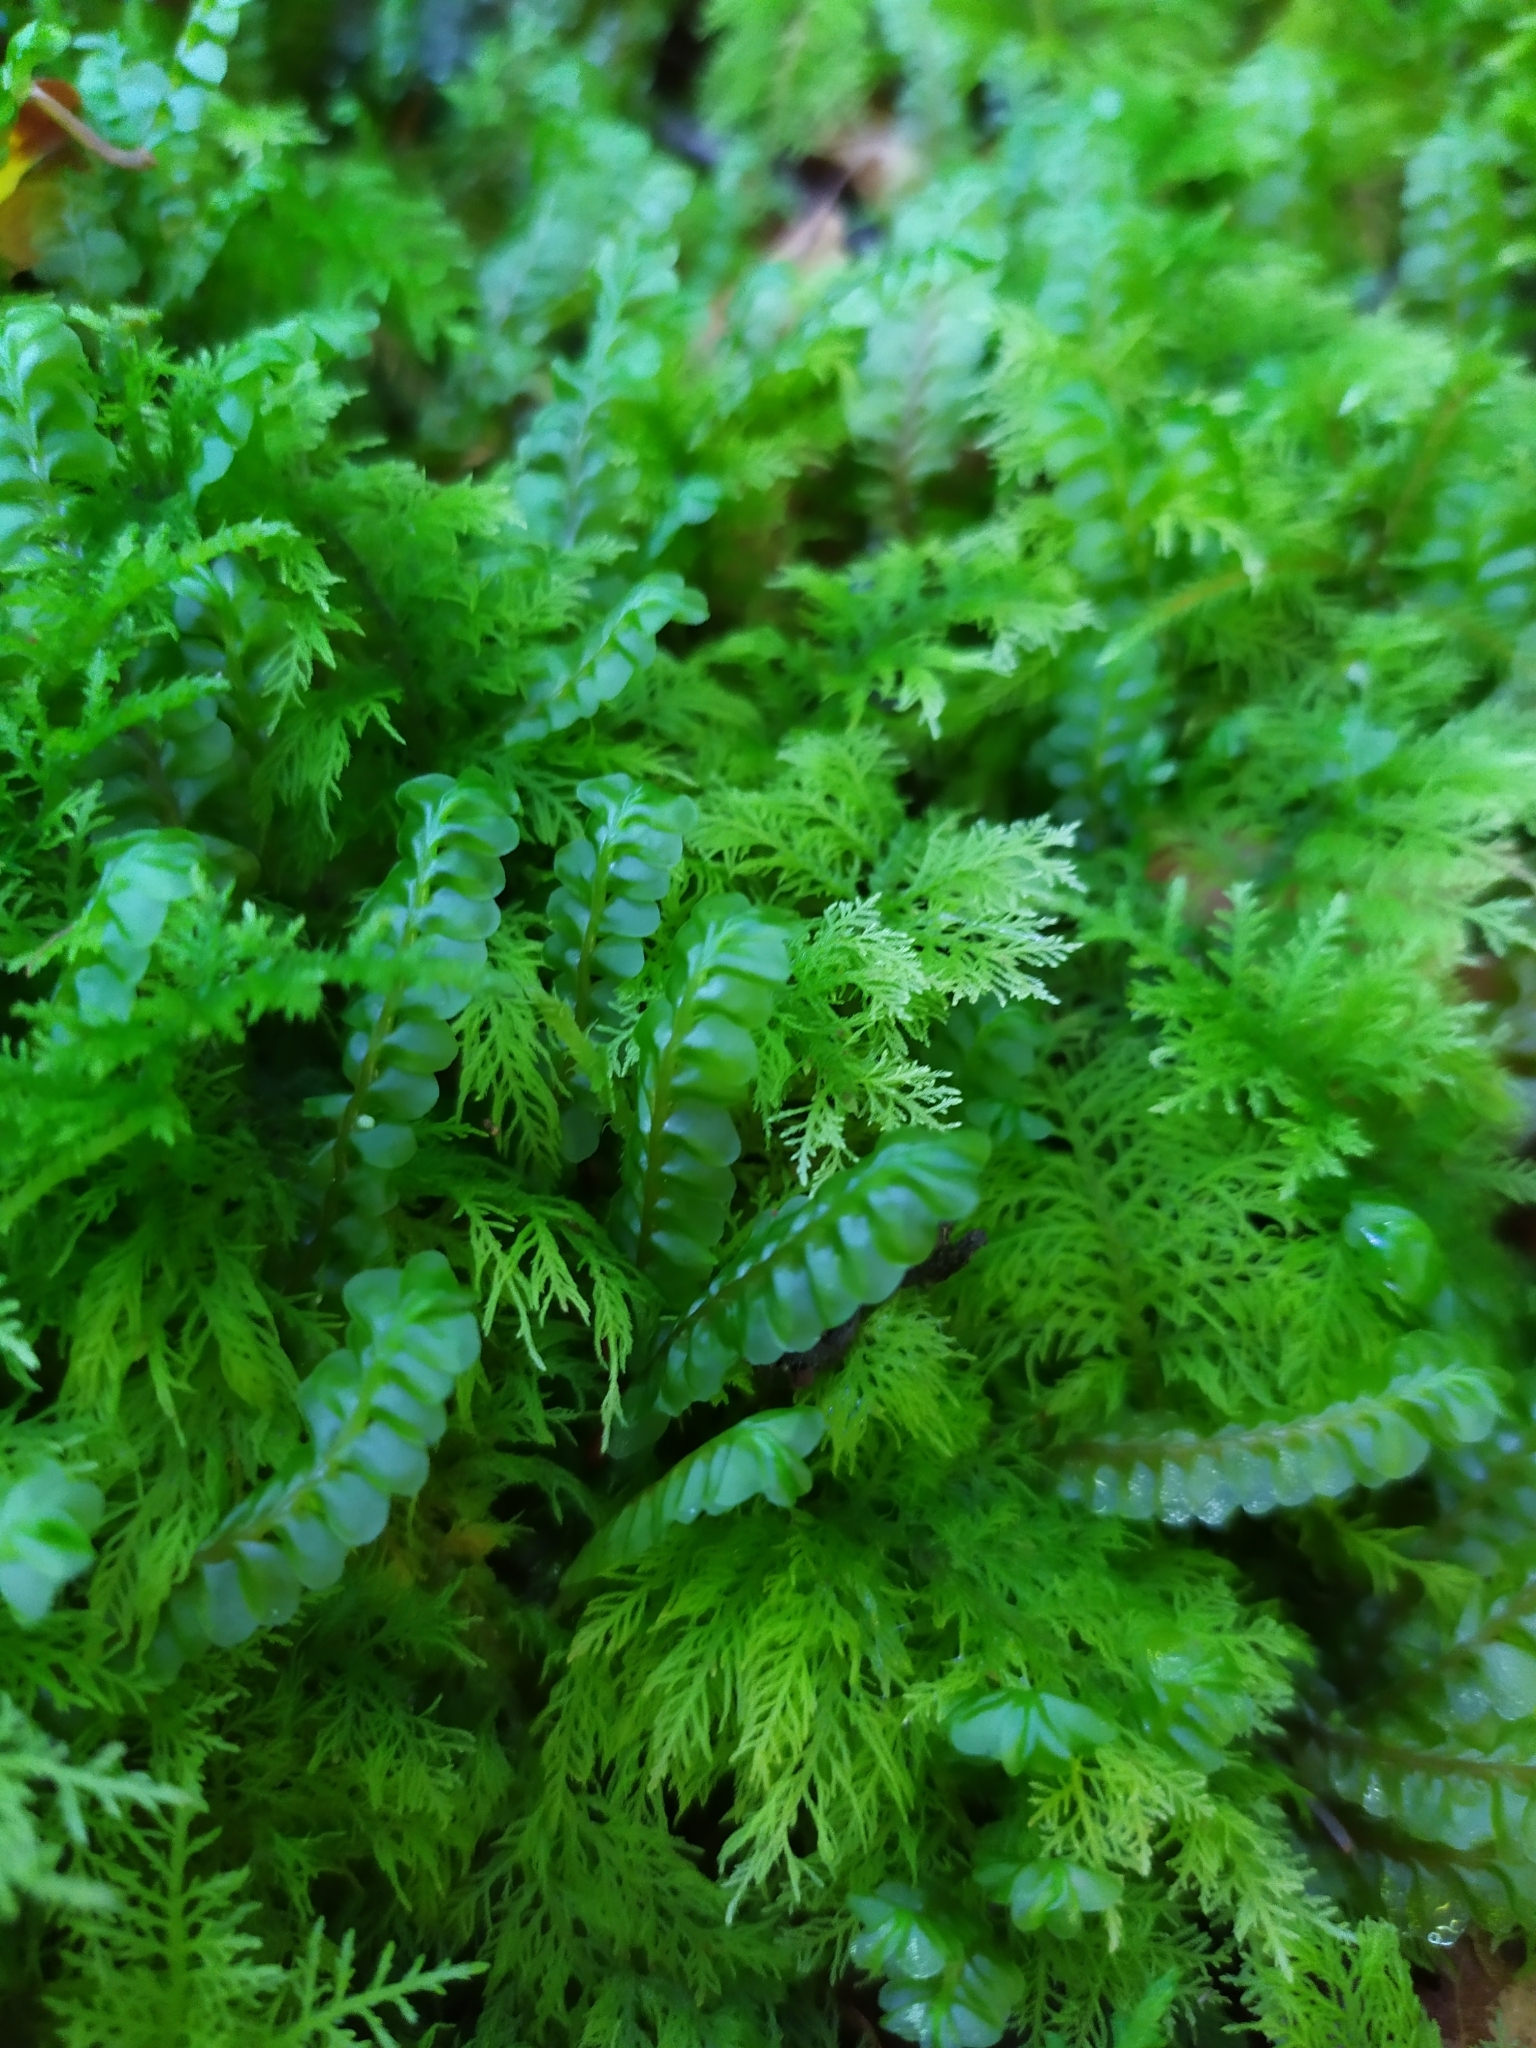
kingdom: Plantae
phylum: Marchantiophyta
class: Jungermanniopsida
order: Jungermanniales
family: Plagiochilaceae
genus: Plagiochila
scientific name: Plagiochila asplenioides
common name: Greater featherwort
